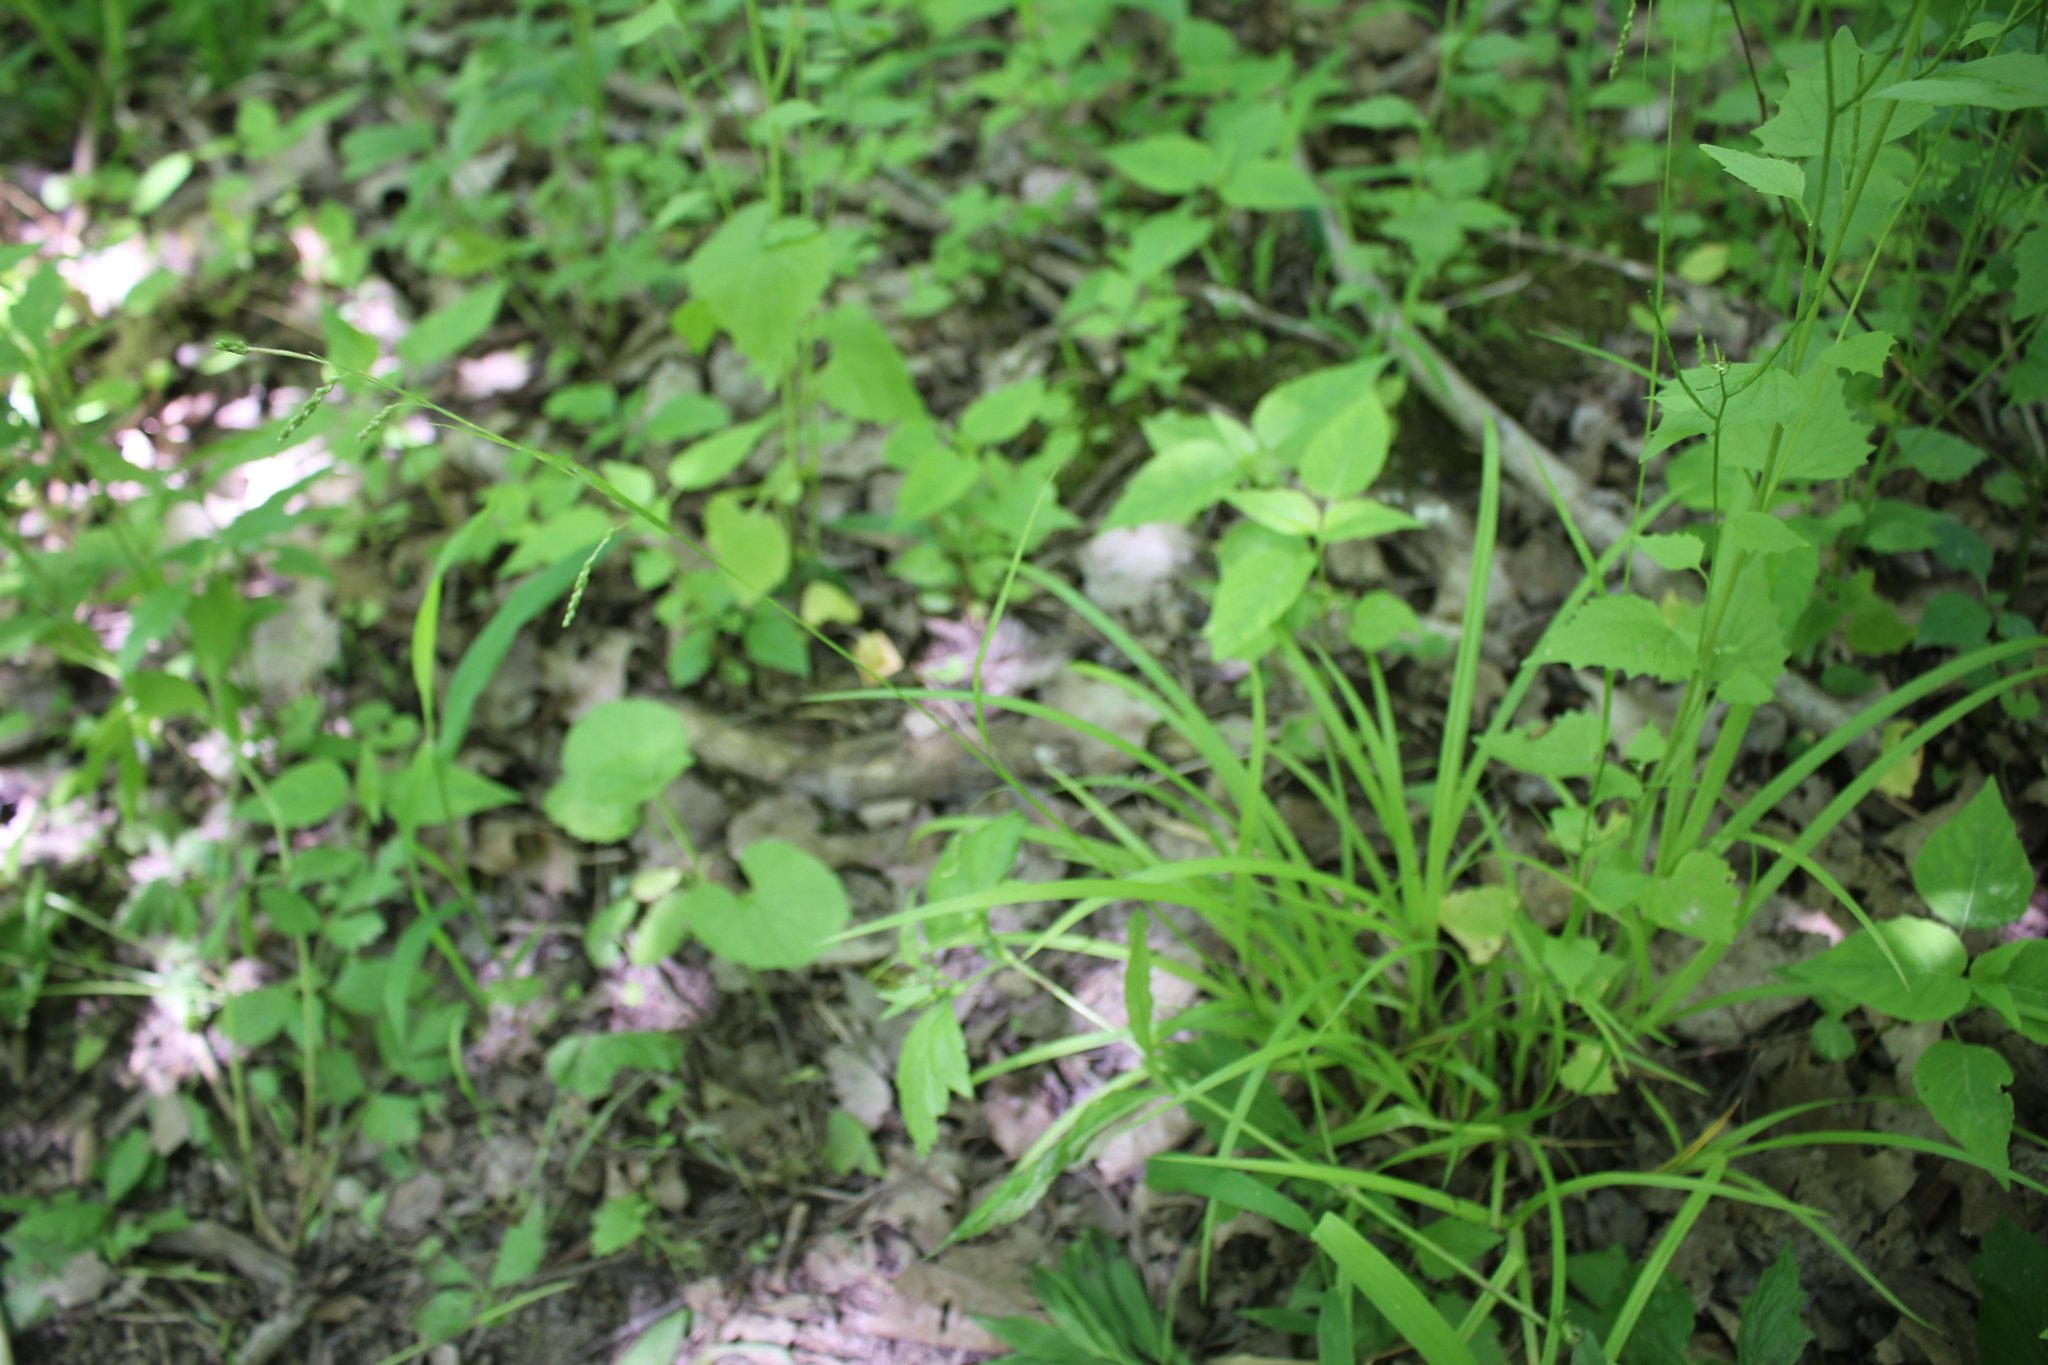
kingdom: Plantae
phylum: Tracheophyta
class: Liliopsida
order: Poales
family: Cyperaceae
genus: Carex
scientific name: Carex gracillima
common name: Graceful sedge
